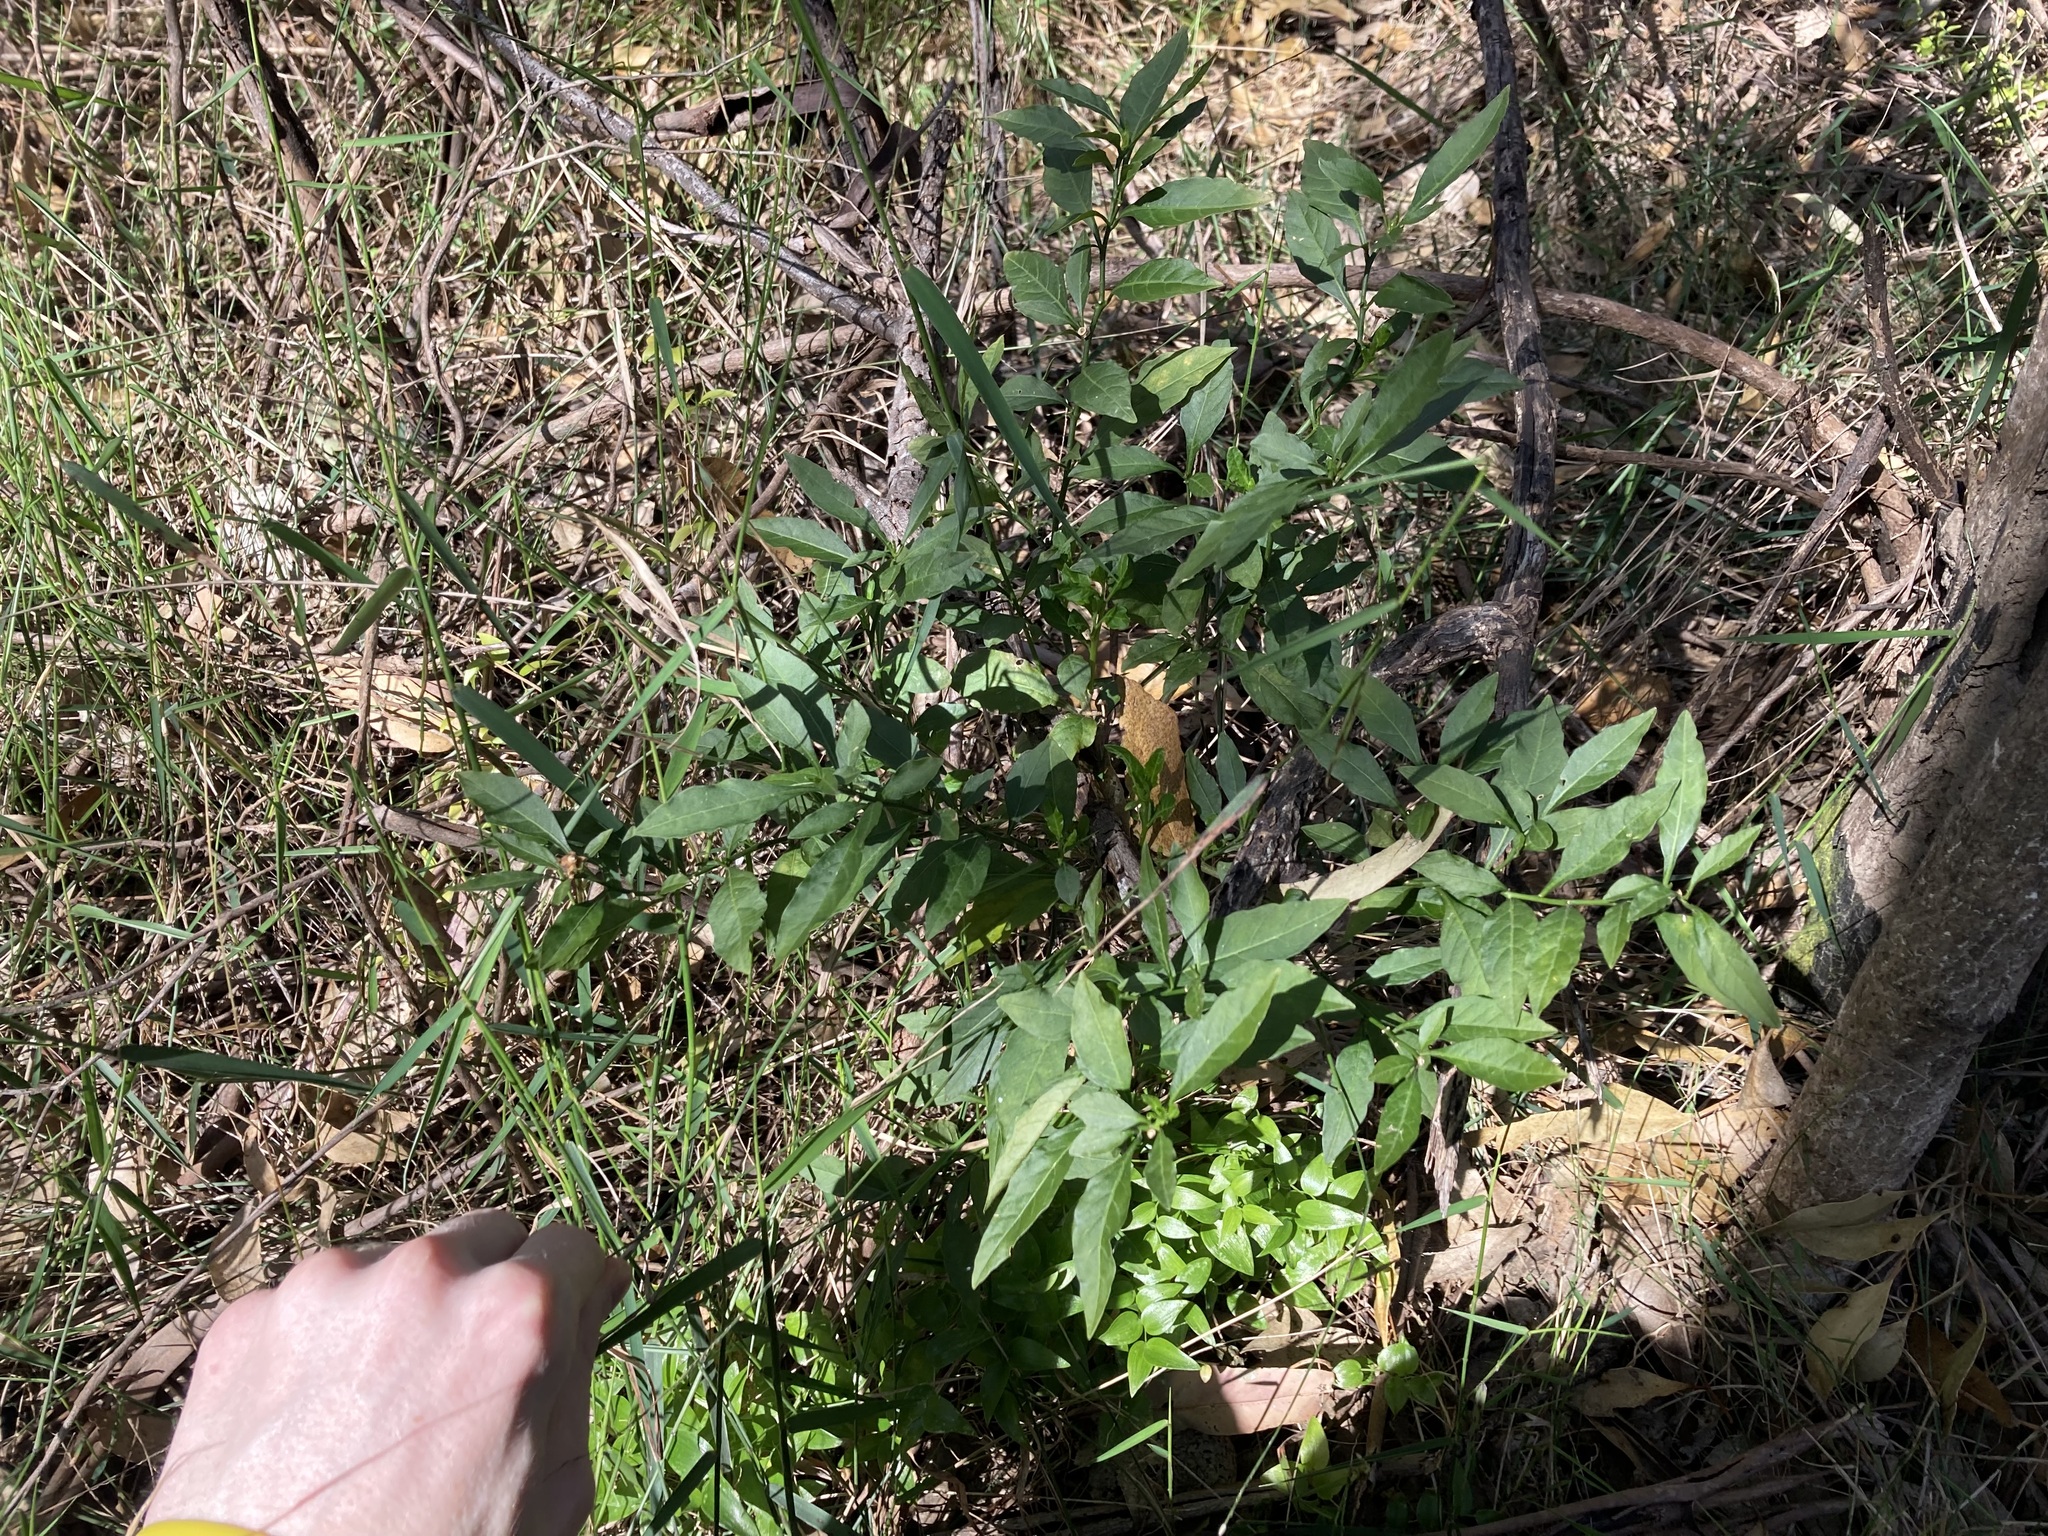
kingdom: Plantae
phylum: Tracheophyta
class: Magnoliopsida
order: Solanales
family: Solanaceae
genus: Solanum
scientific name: Solanum pseudocapsicum
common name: Jerusalem cherry
